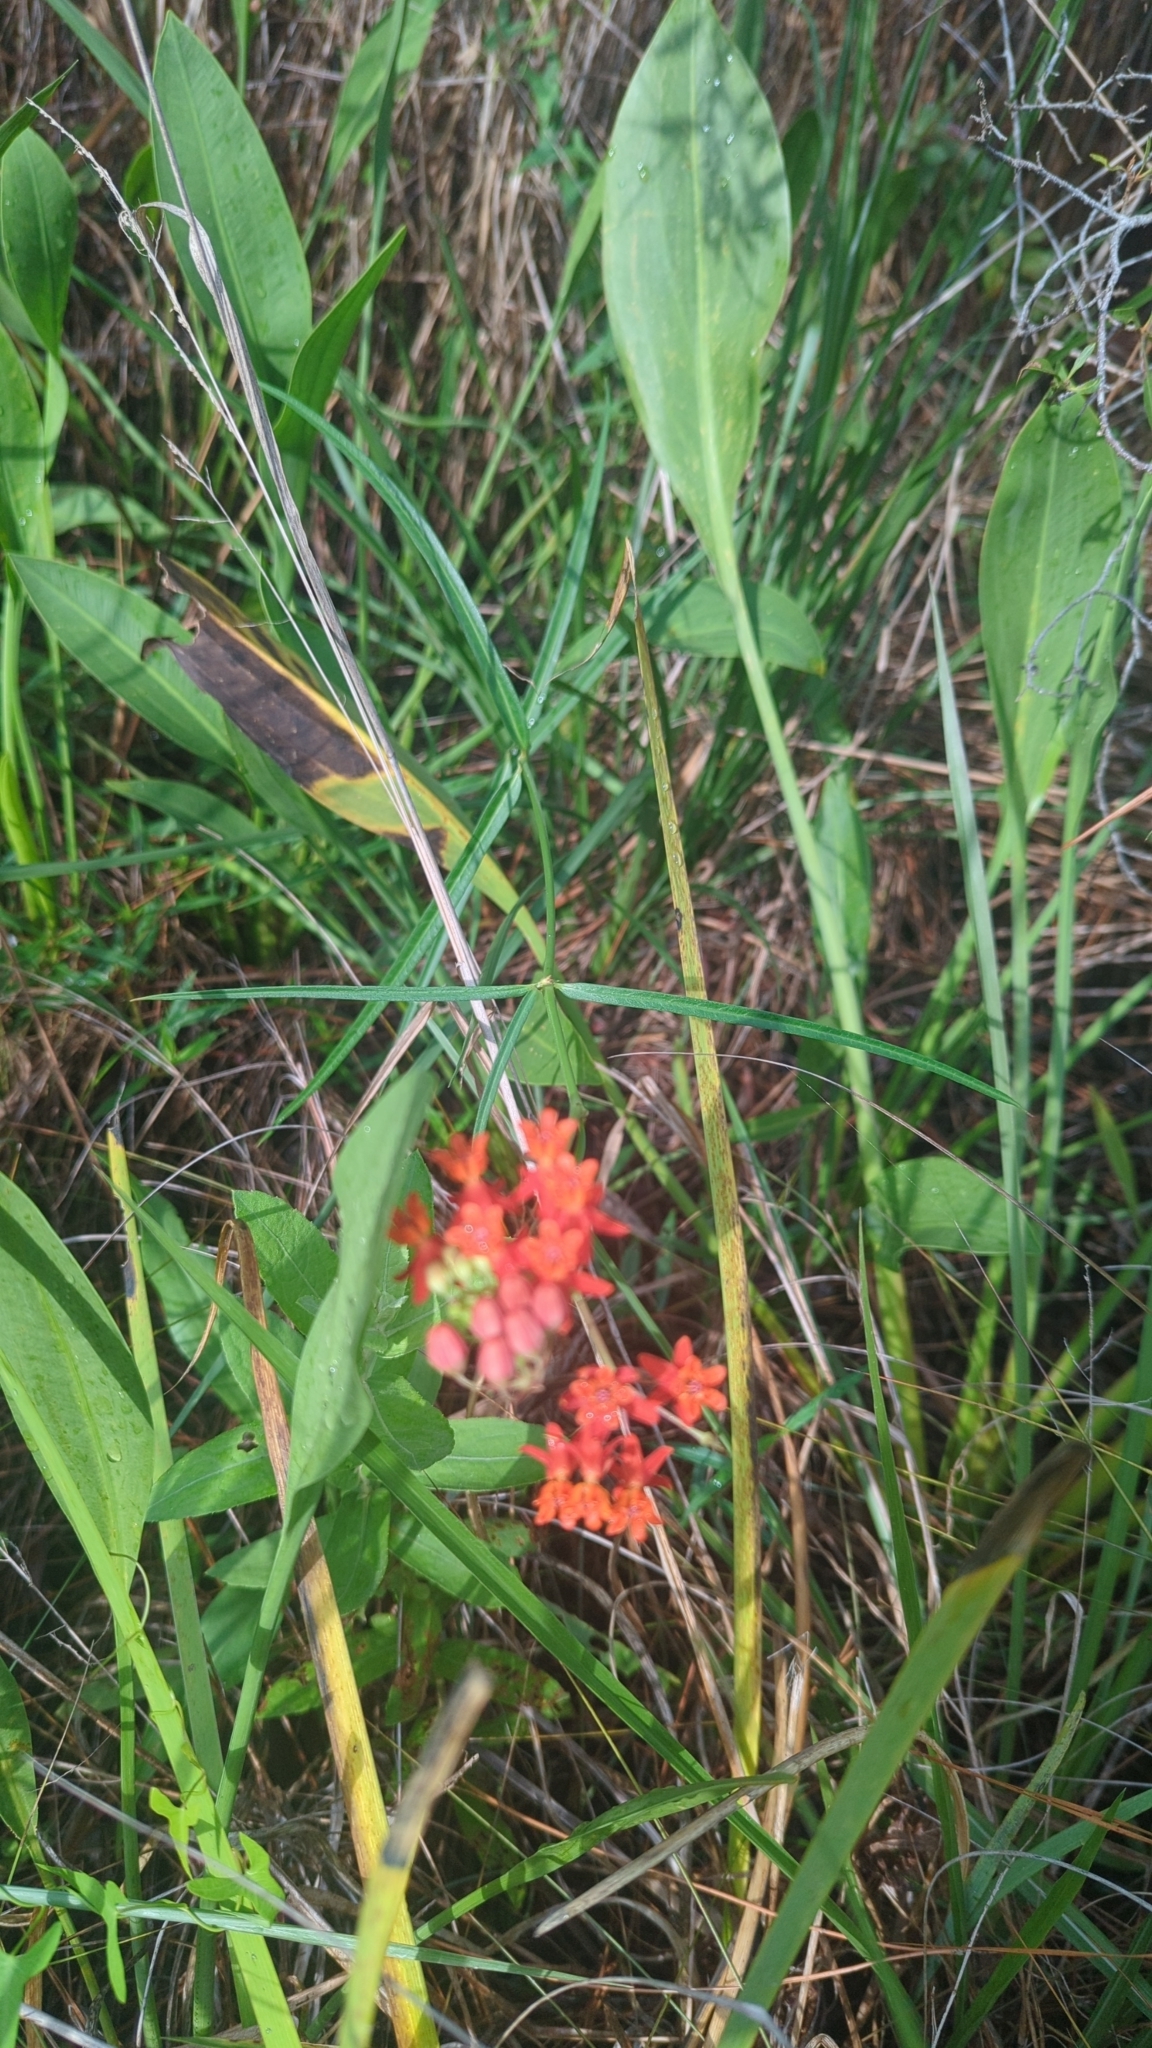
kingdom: Plantae
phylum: Tracheophyta
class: Magnoliopsida
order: Gentianales
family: Apocynaceae
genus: Asclepias
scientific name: Asclepias lanceolata
